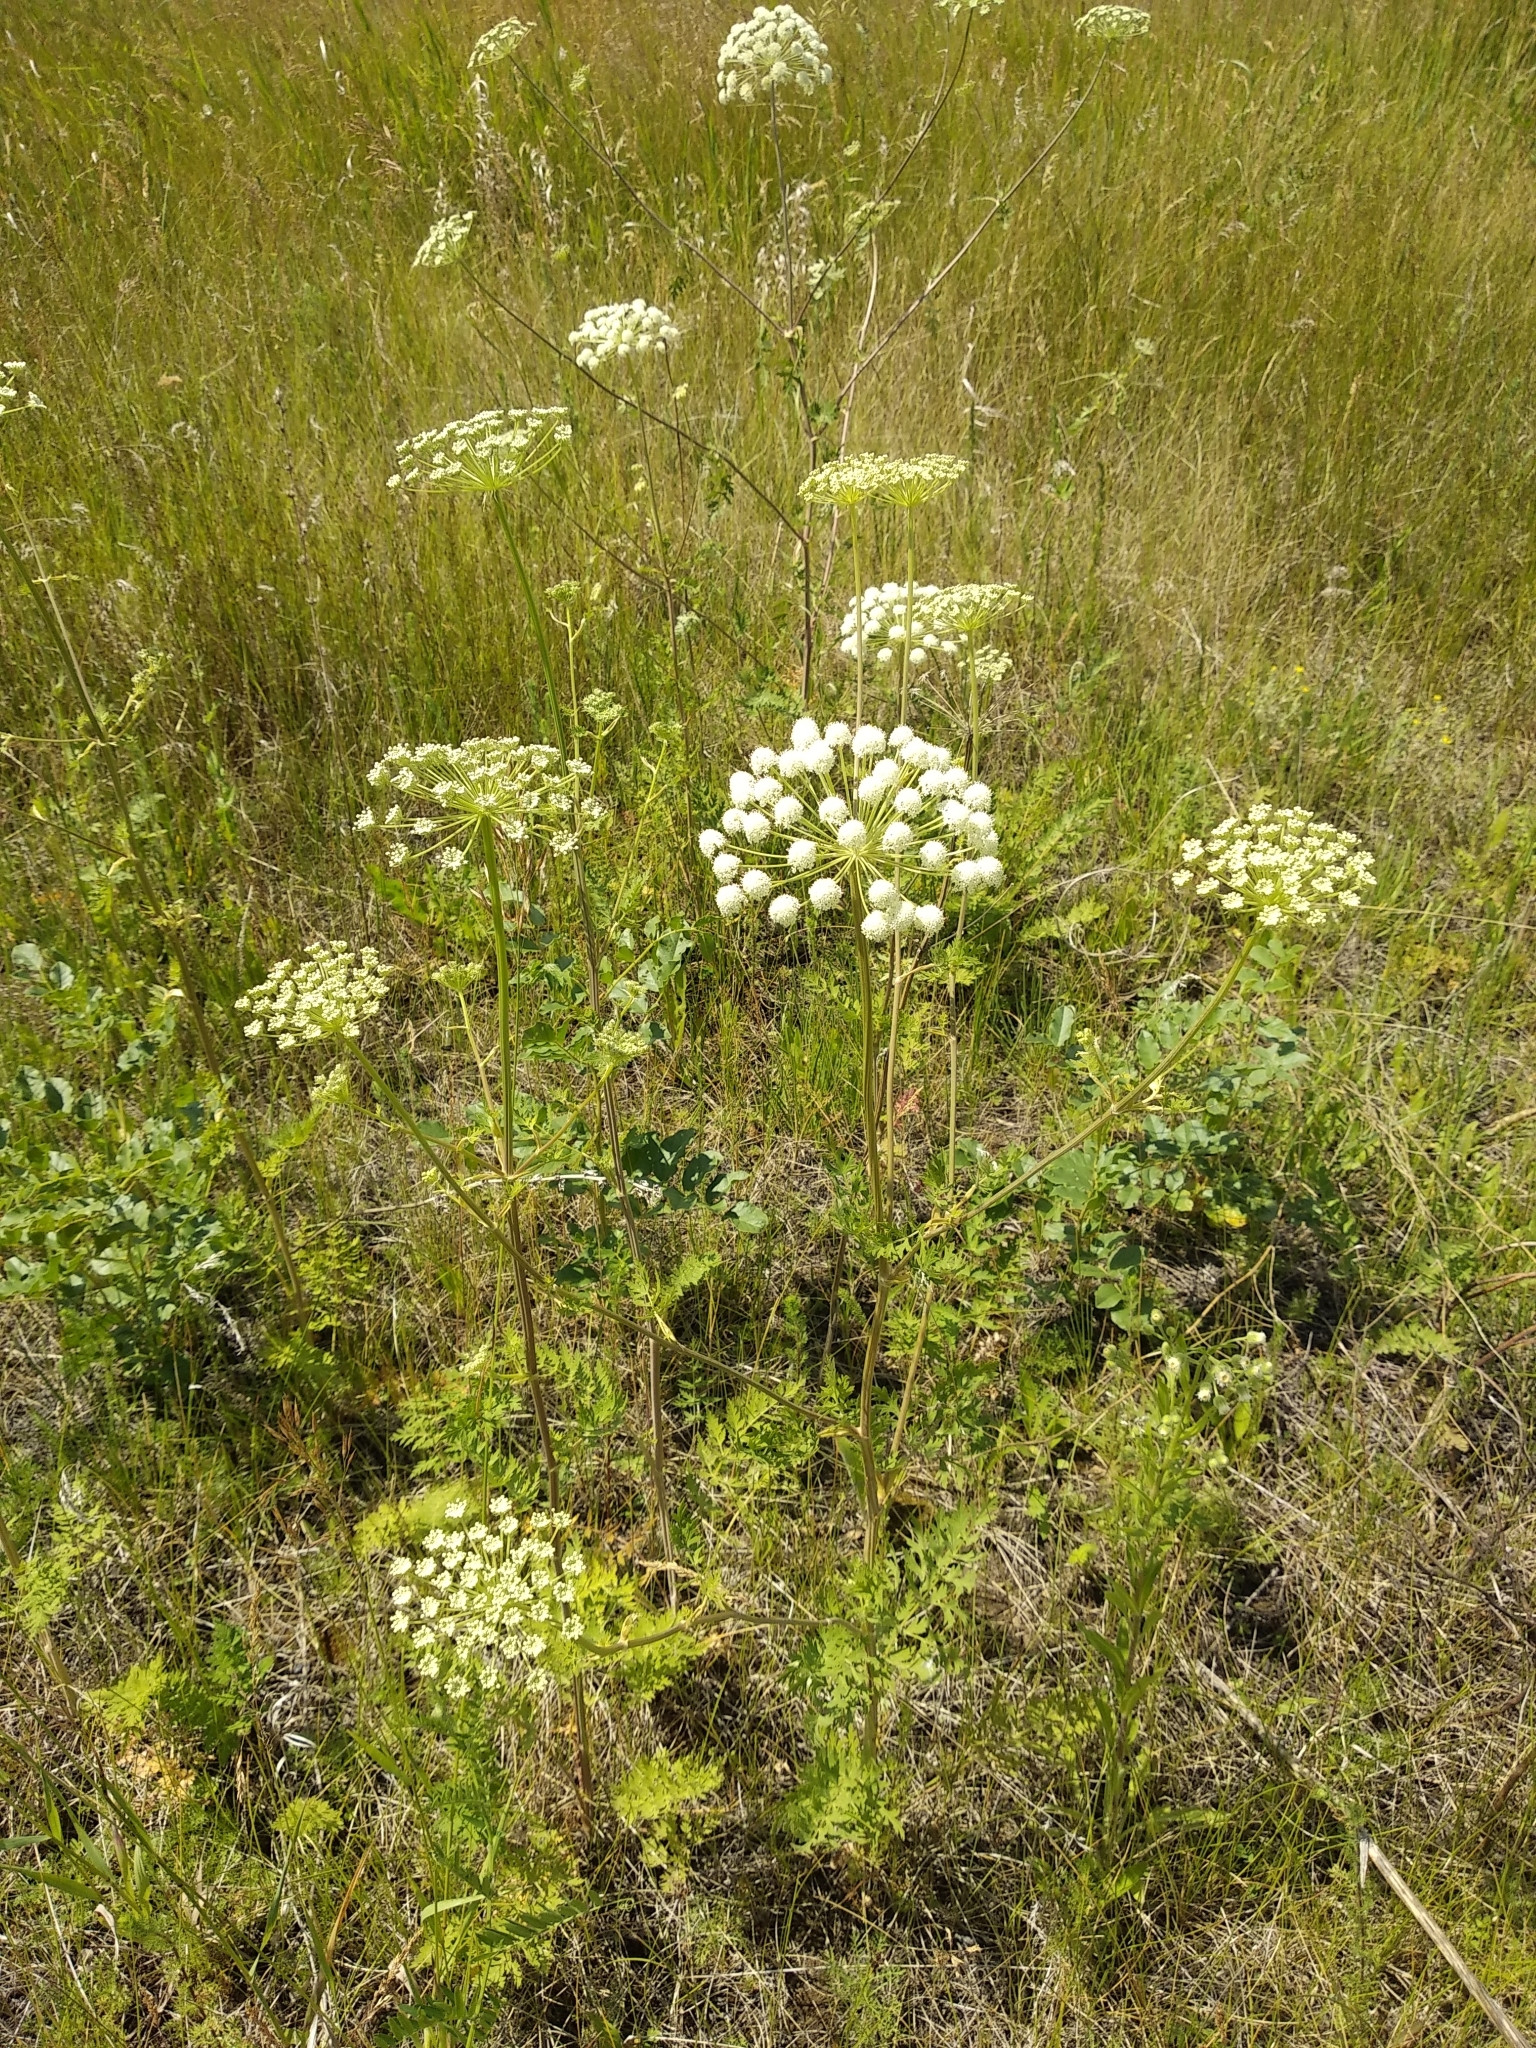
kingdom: Plantae
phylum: Tracheophyta
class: Magnoliopsida
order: Apiales
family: Apiaceae
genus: Seseli
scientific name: Seseli libanotis
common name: Mooncarrot
